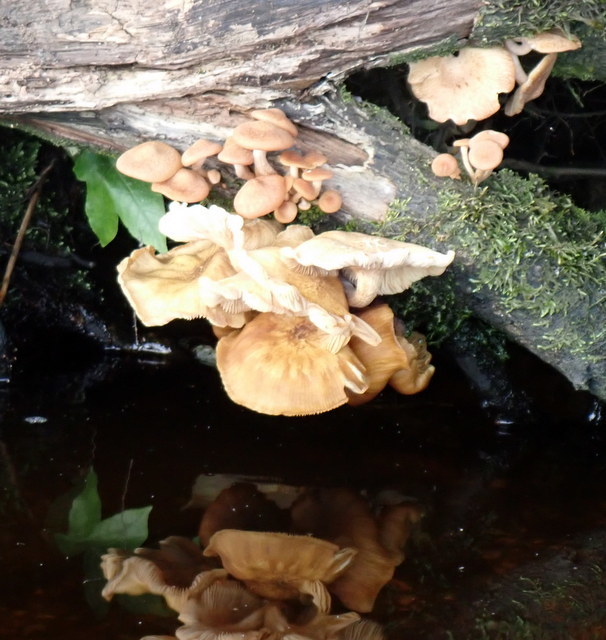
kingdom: Fungi
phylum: Basidiomycota
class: Agaricomycetes
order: Agaricales
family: Physalacriaceae
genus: Desarmillaria
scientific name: Desarmillaria caespitosa
